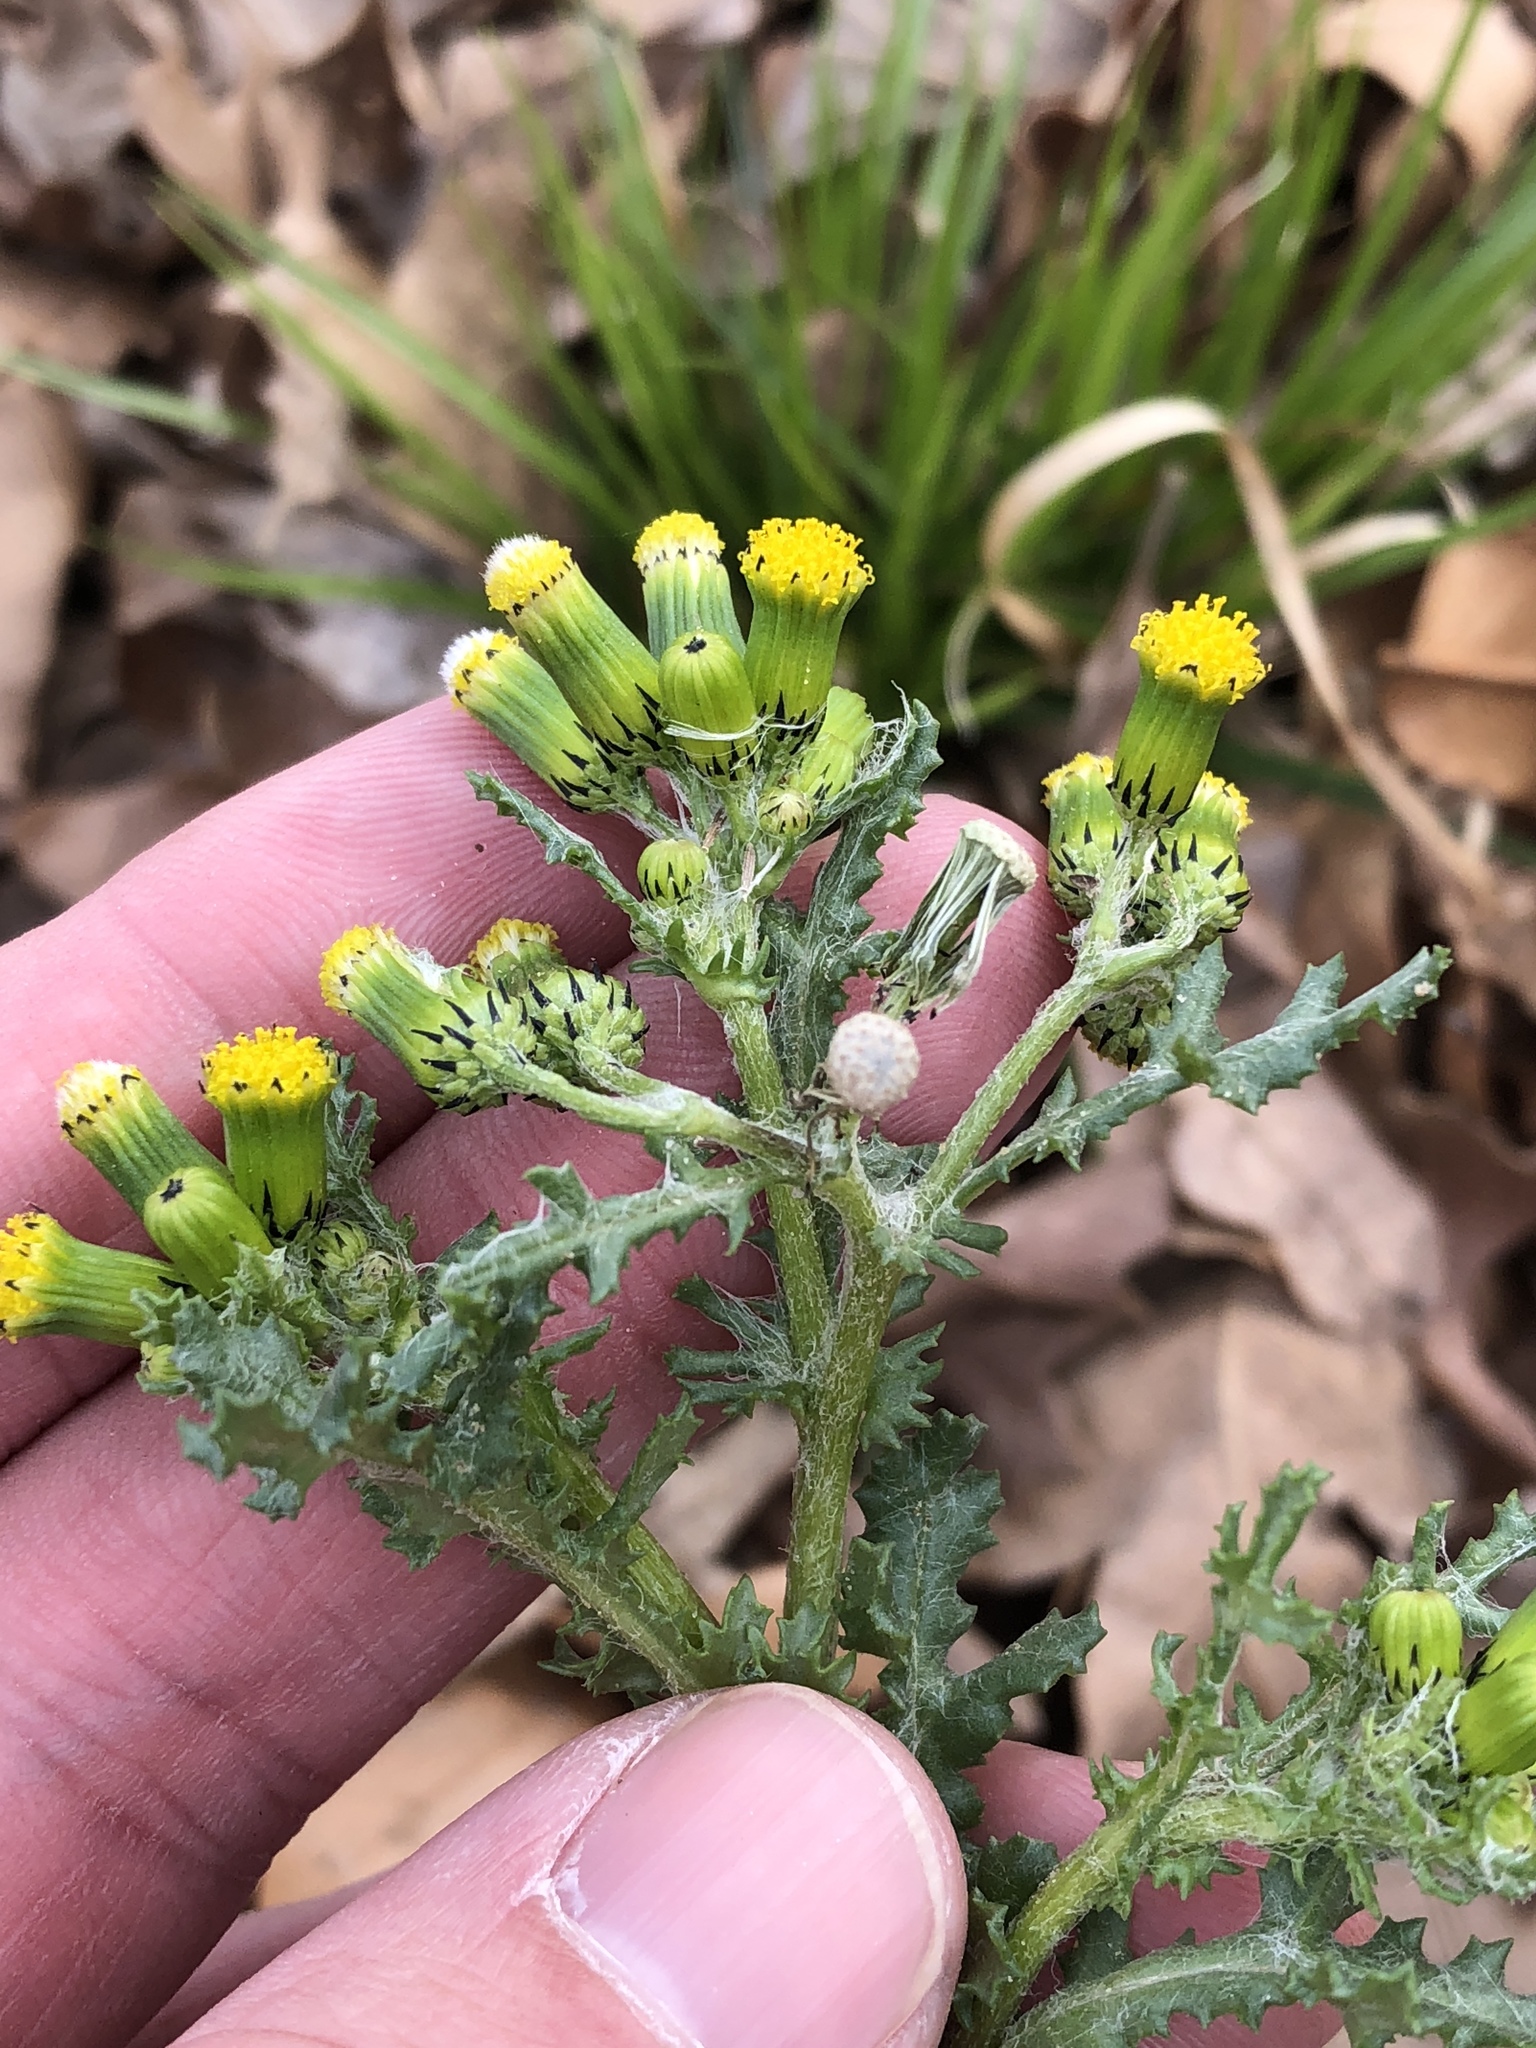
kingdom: Plantae
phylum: Tracheophyta
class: Magnoliopsida
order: Asterales
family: Asteraceae
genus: Senecio
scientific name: Senecio vulgaris
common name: Old-man-in-the-spring
